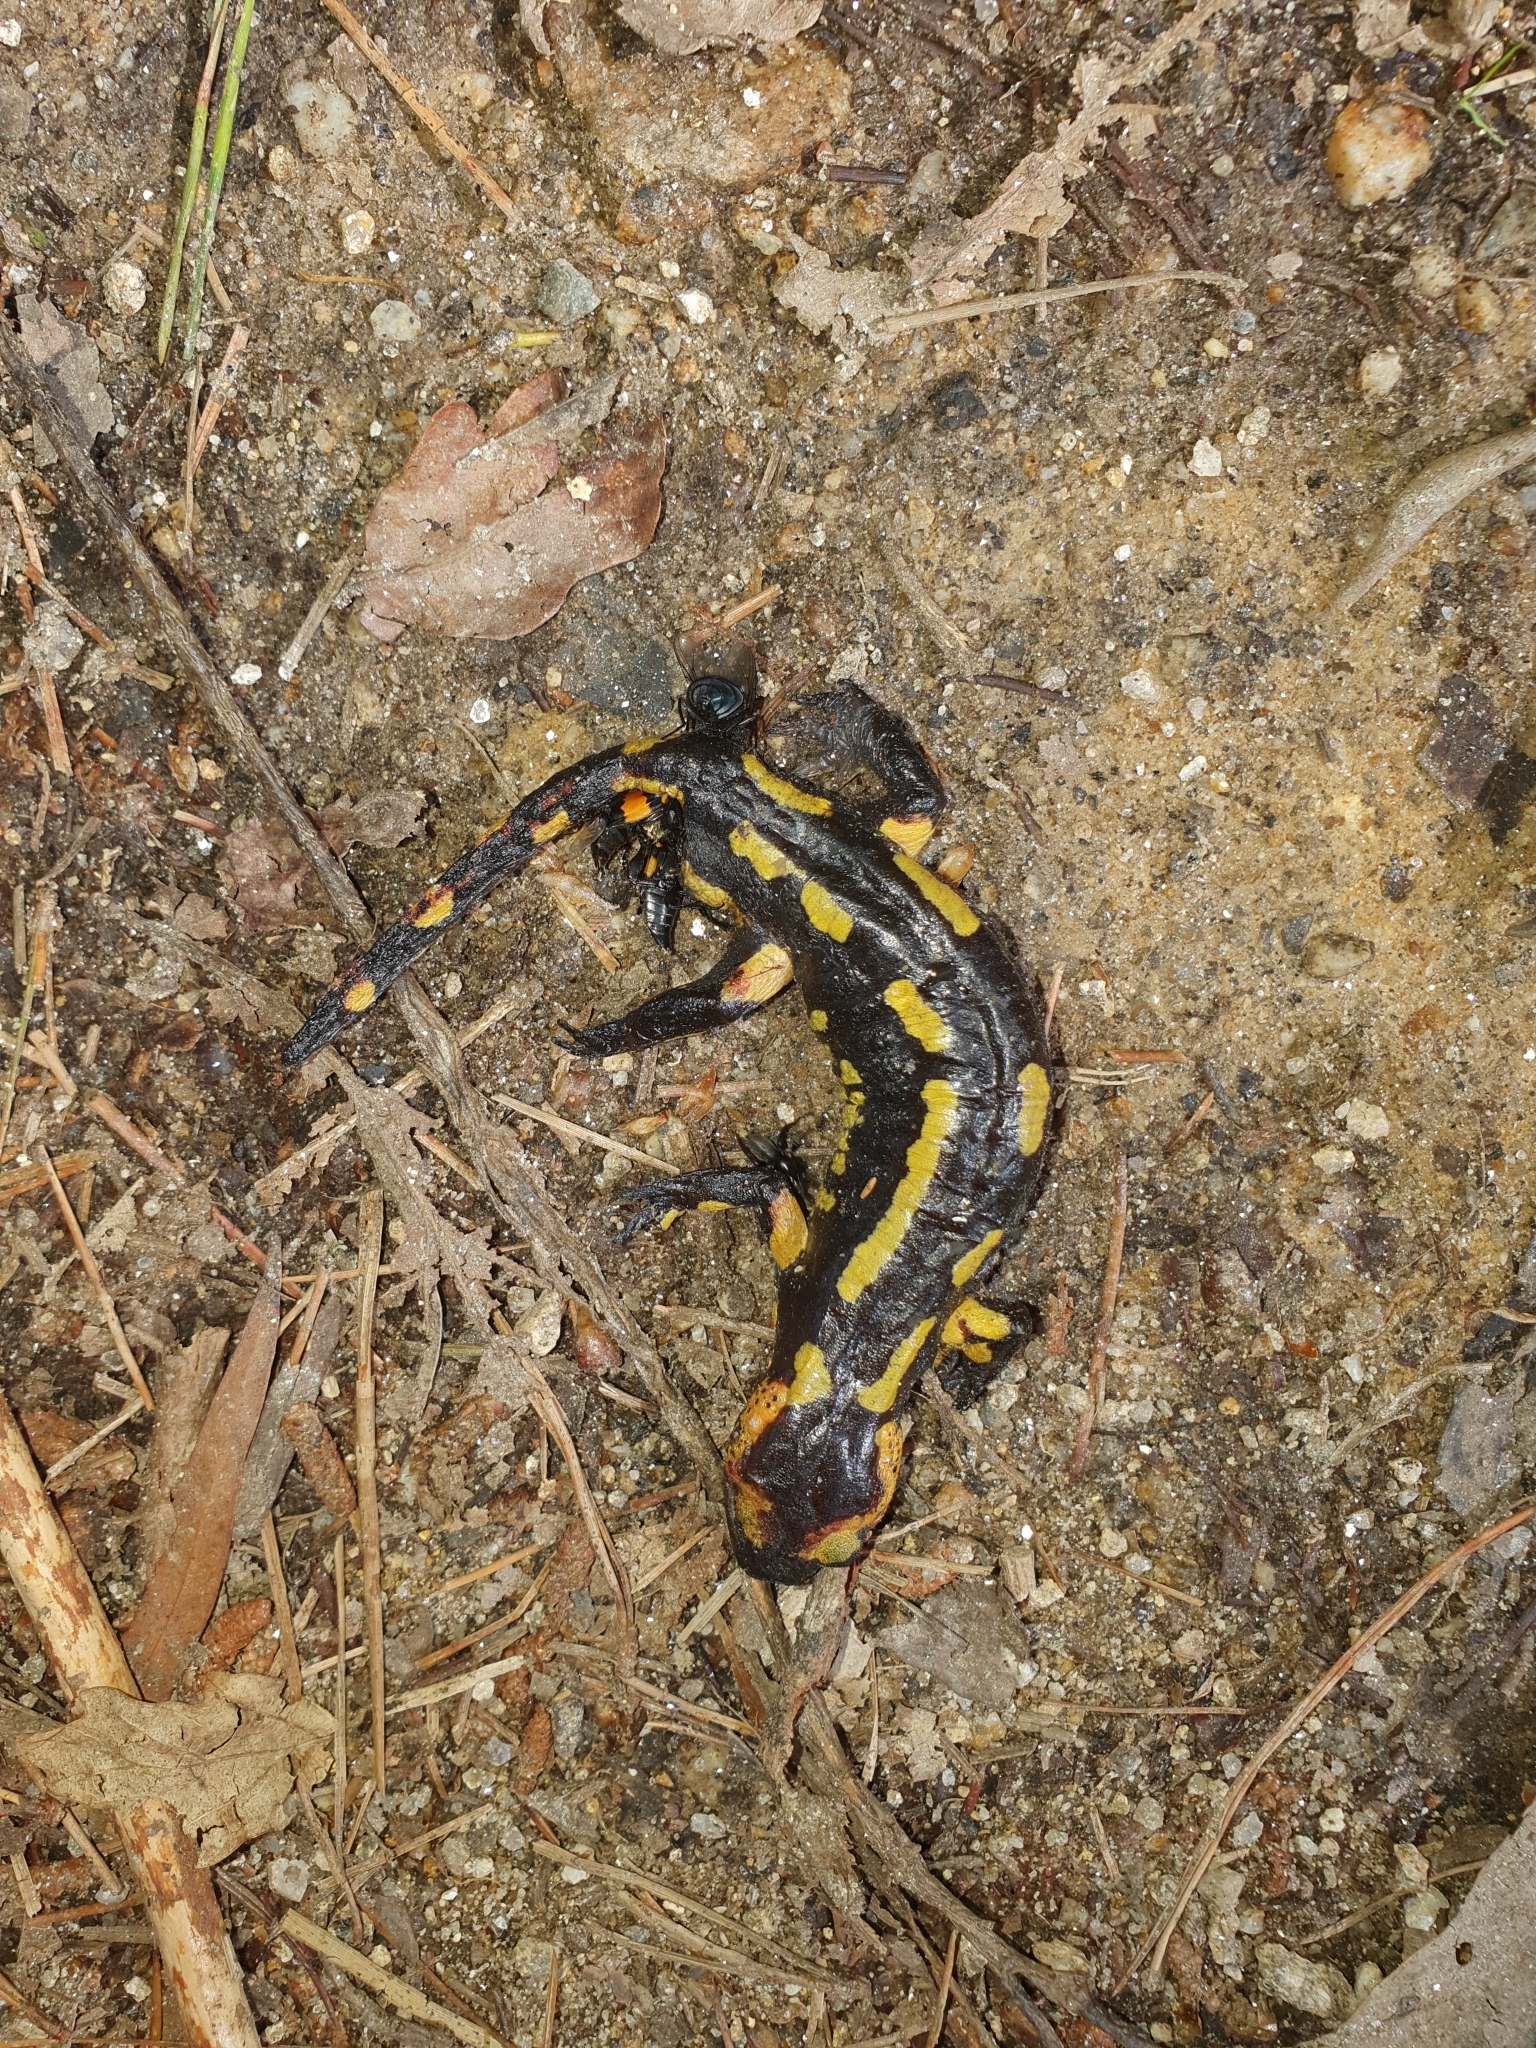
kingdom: Animalia
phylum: Chordata
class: Amphibia
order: Caudata
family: Salamandridae
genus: Salamandra
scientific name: Salamandra salamandra
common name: Fire salamander
